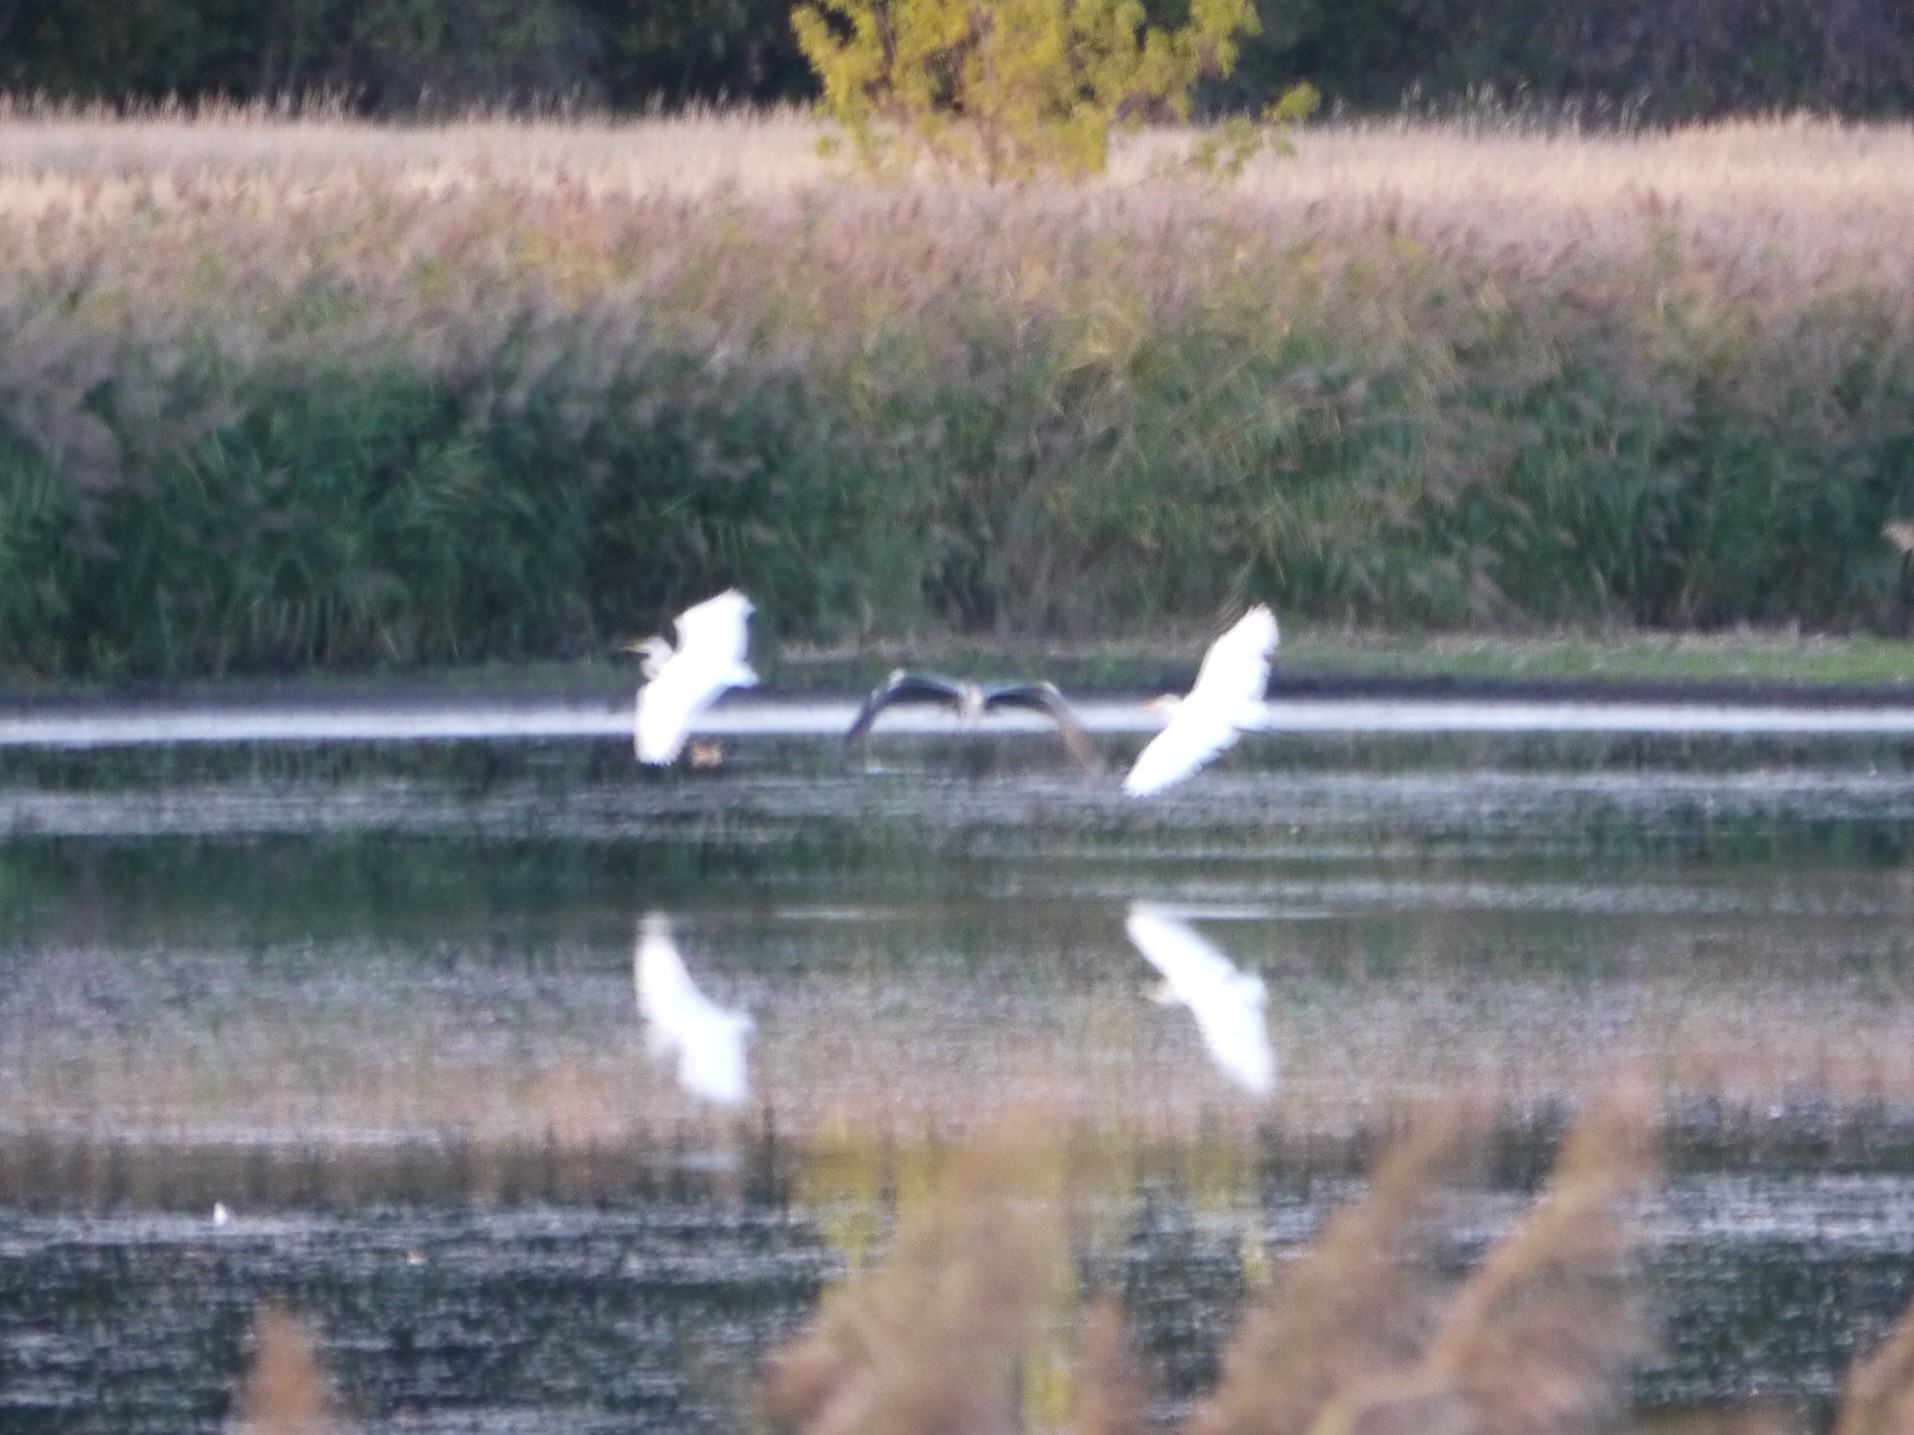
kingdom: Animalia
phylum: Chordata
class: Aves
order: Pelecaniformes
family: Ardeidae
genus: Ardea
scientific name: Ardea alba
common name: Great egret
